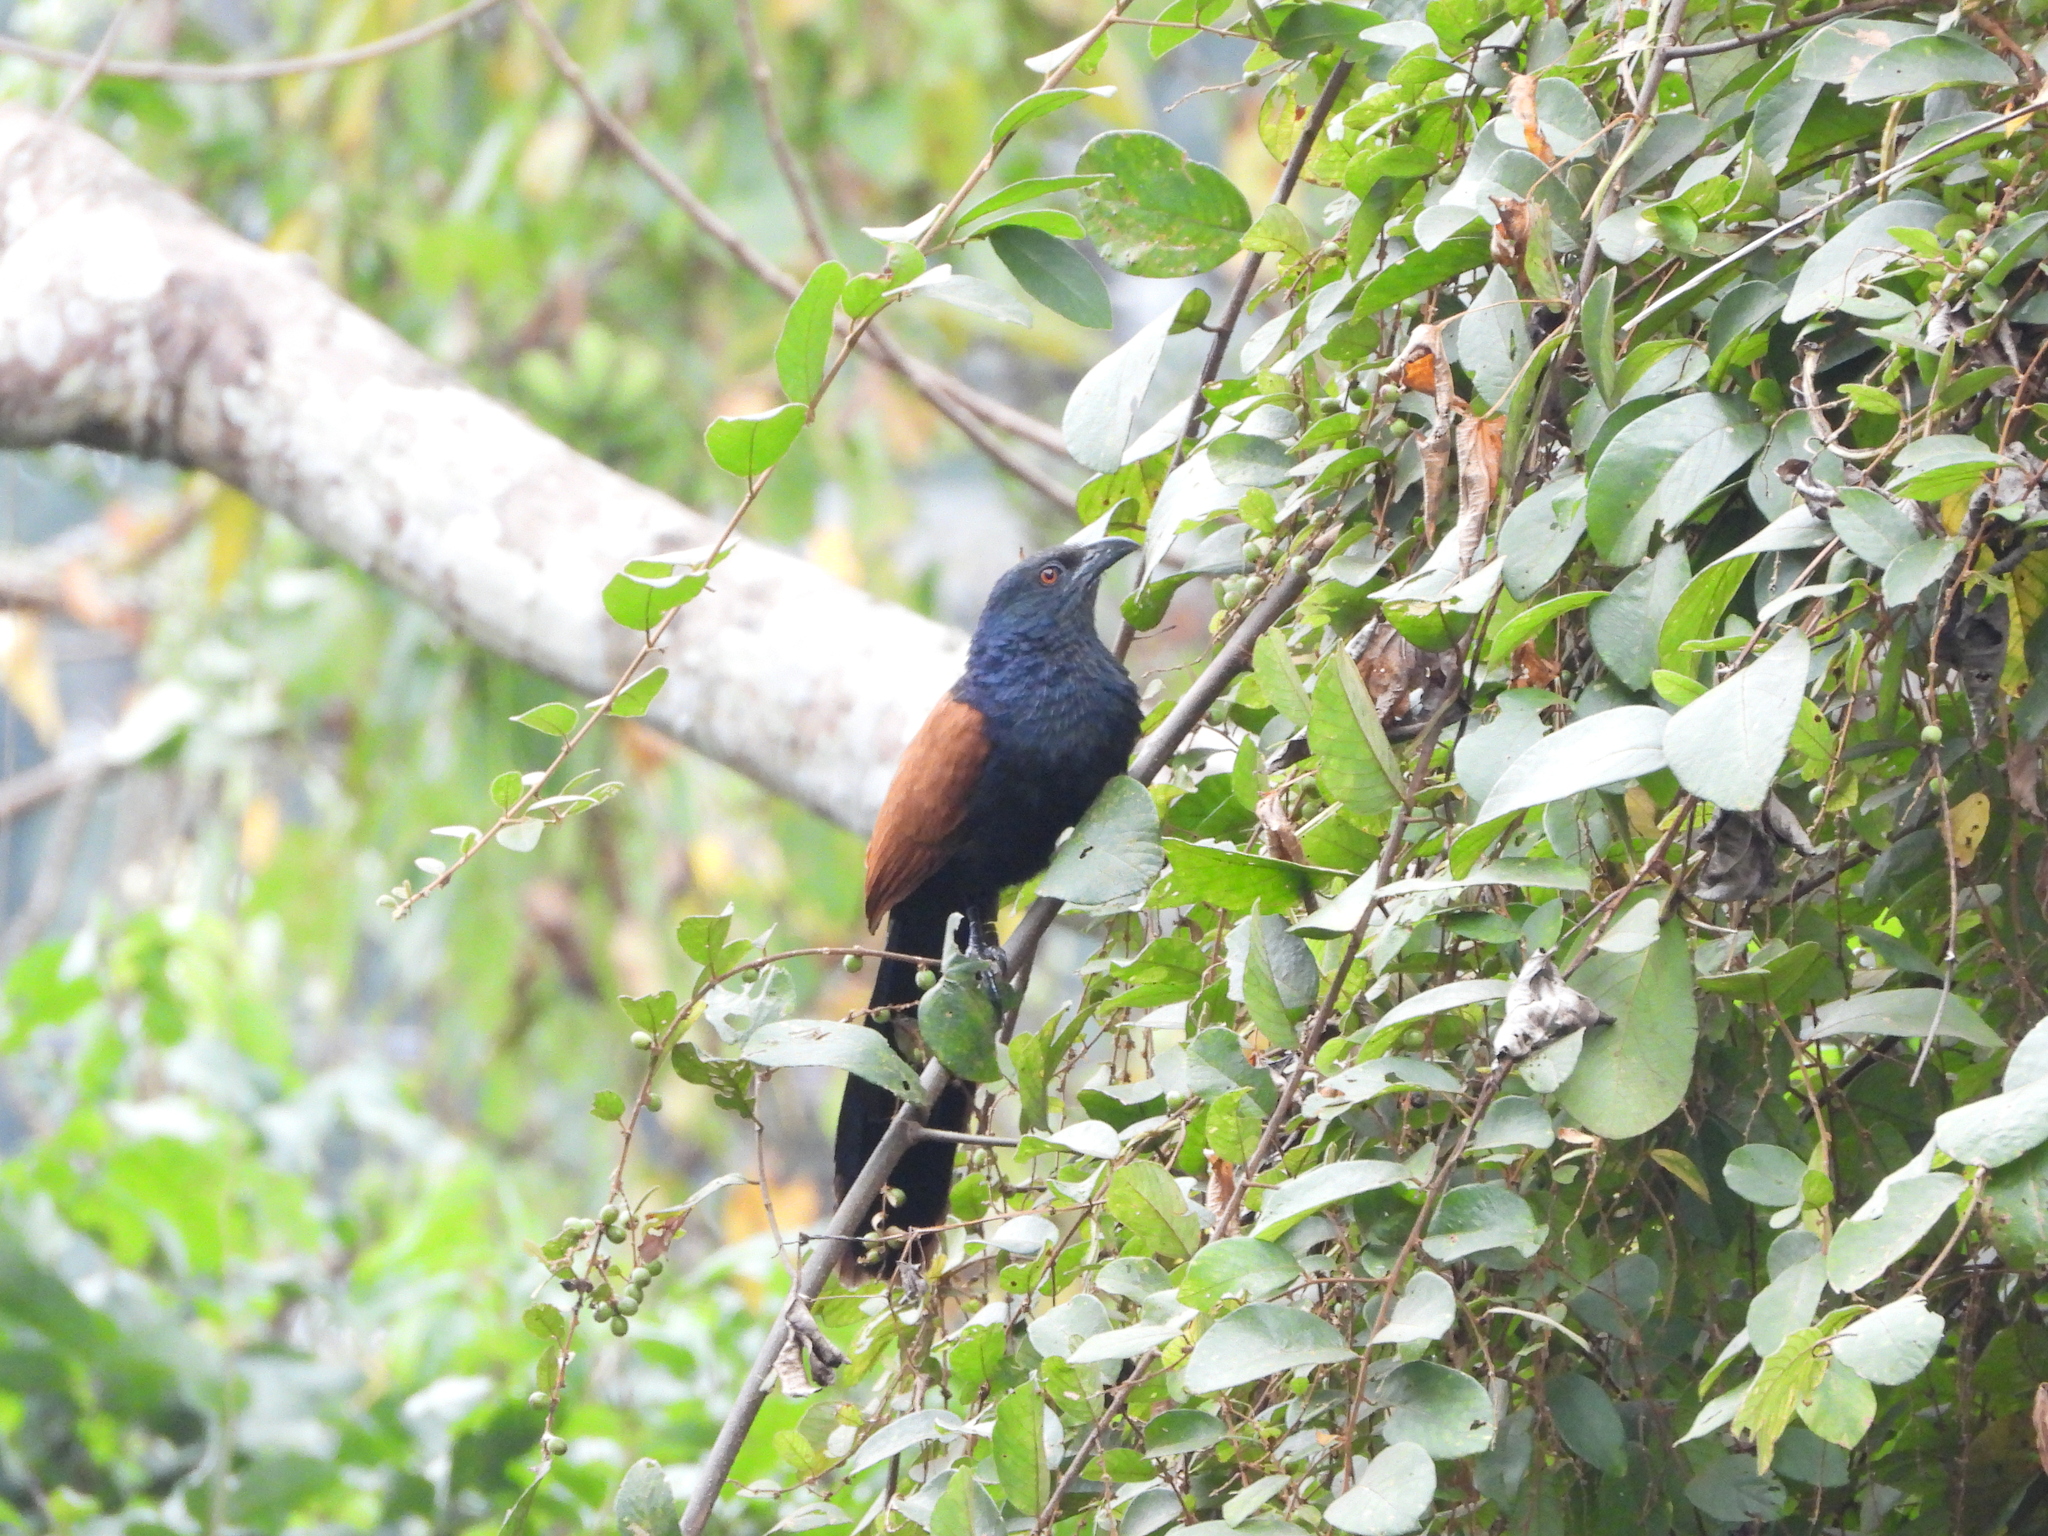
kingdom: Animalia
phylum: Chordata
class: Aves
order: Cuculiformes
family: Cuculidae
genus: Centropus
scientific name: Centropus sinensis
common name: Greater coucal
